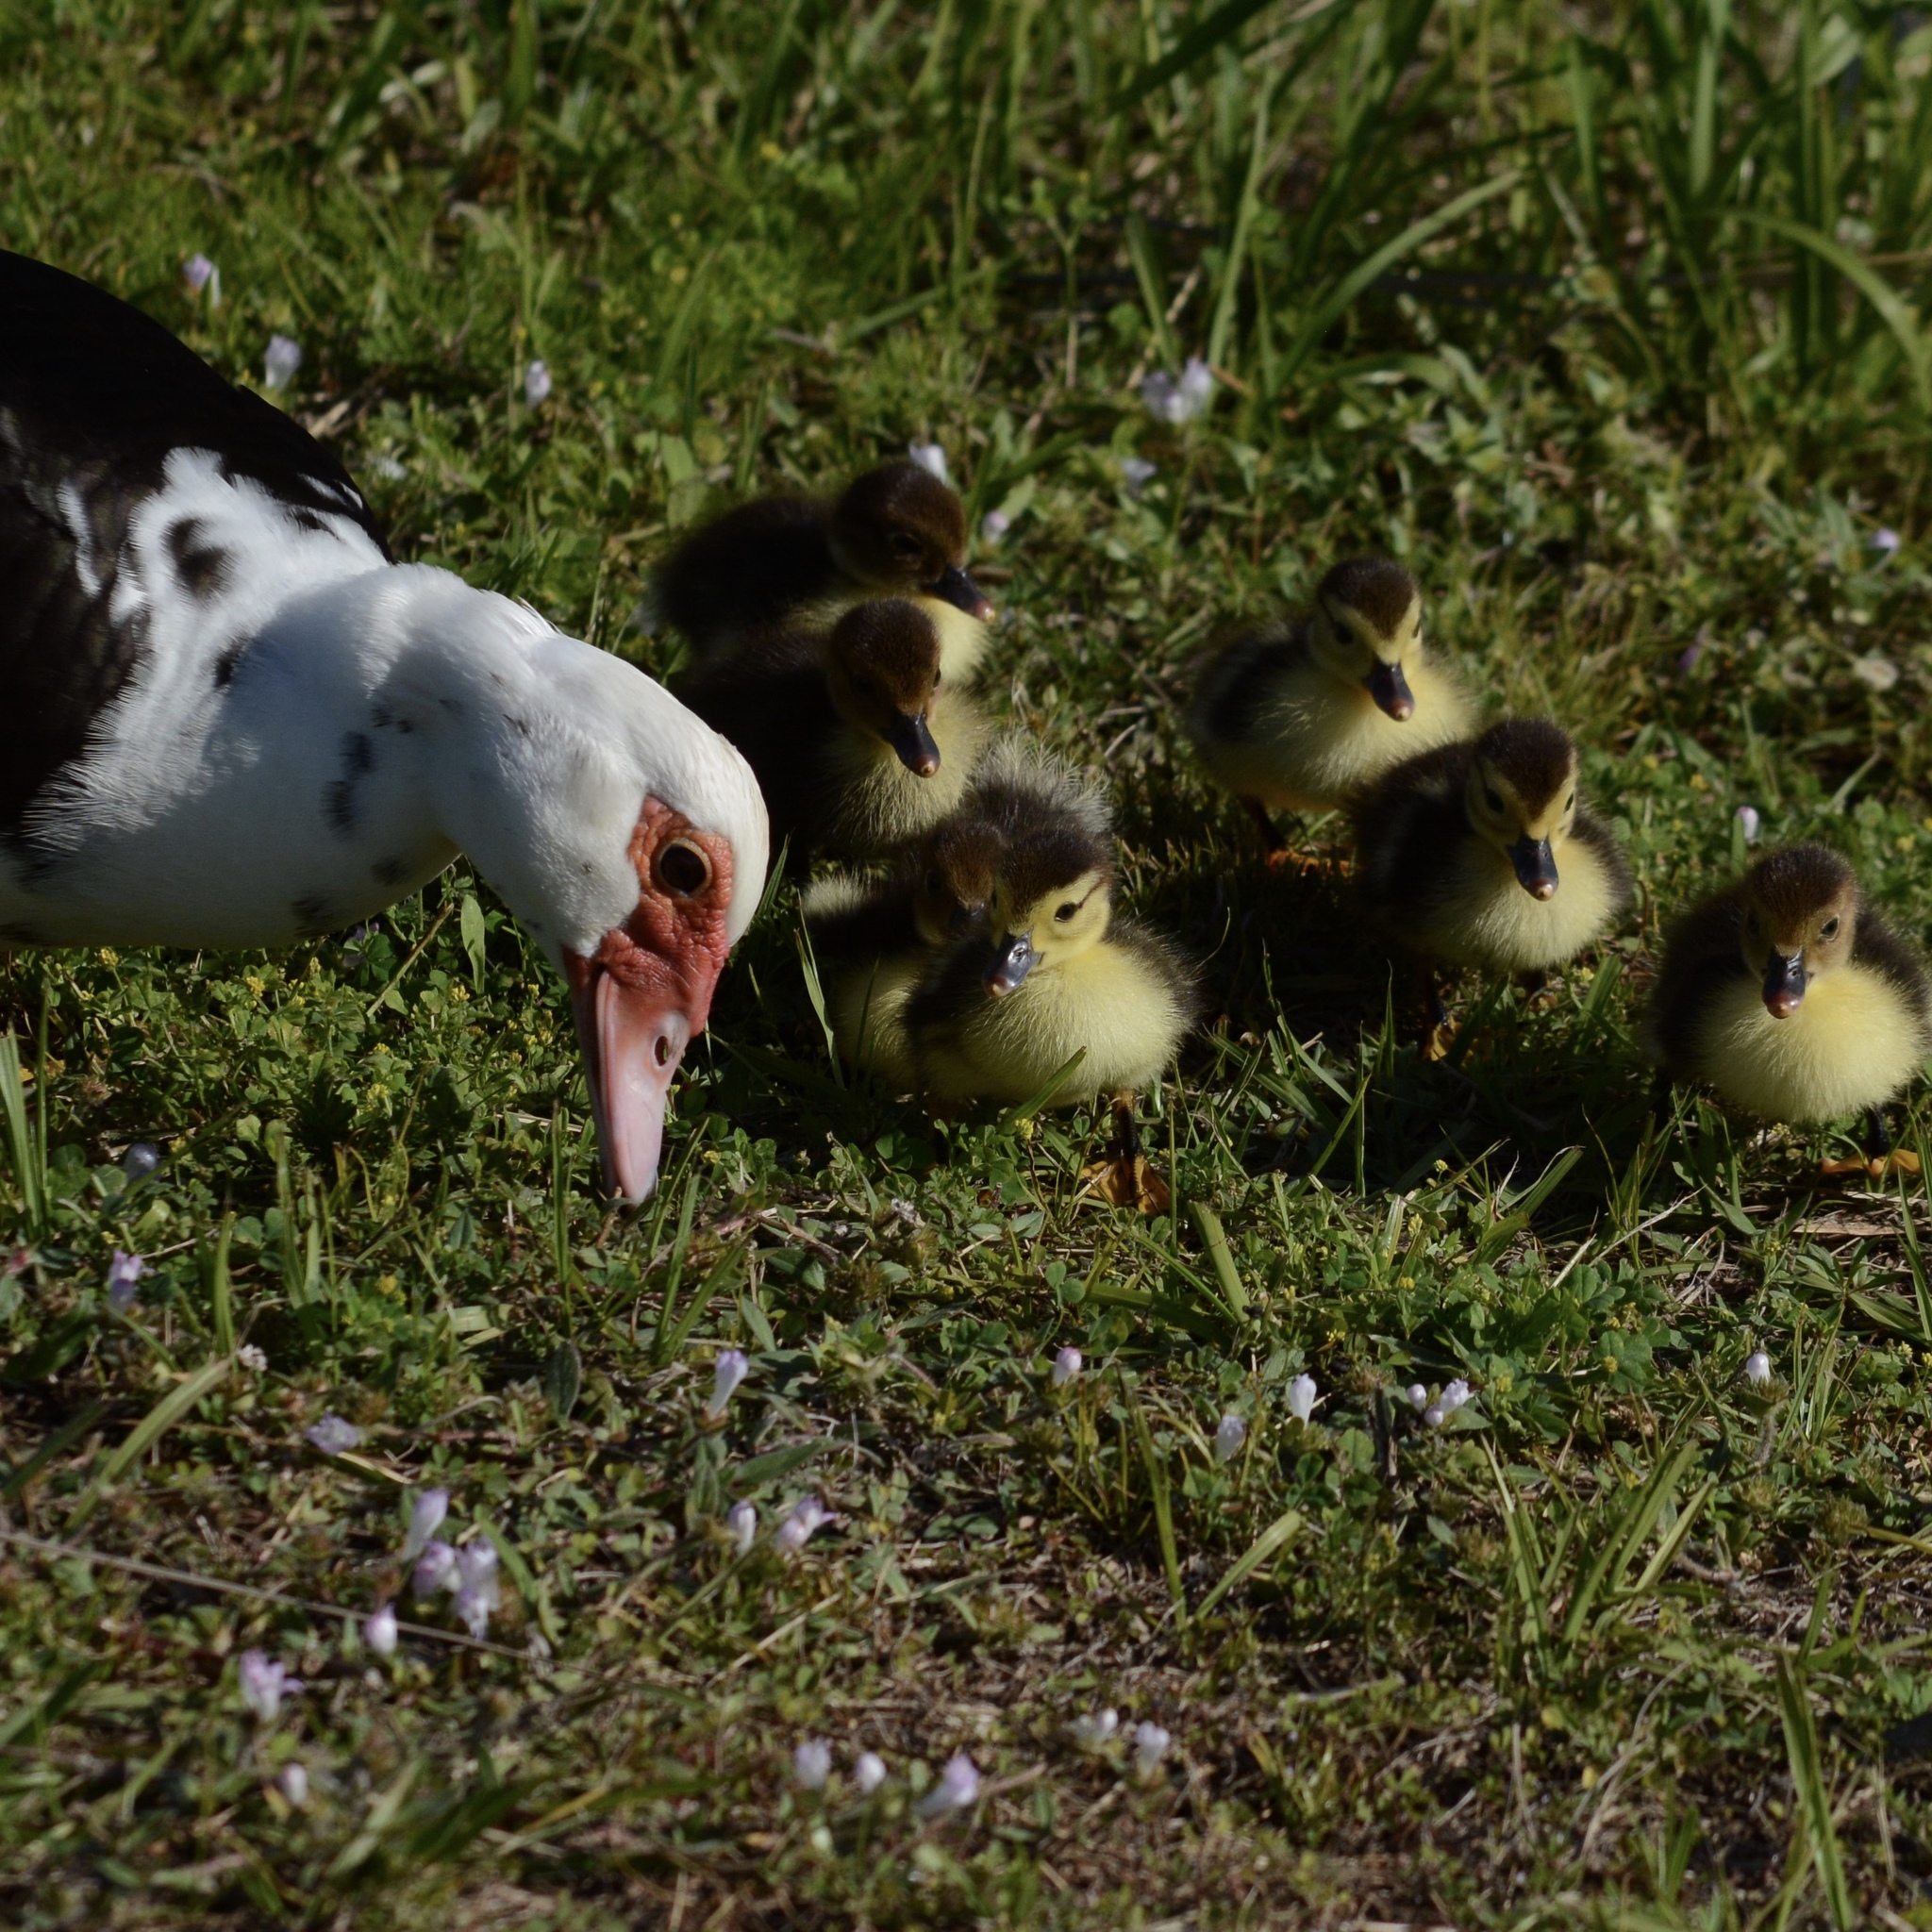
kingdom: Animalia
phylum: Chordata
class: Aves
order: Anseriformes
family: Anatidae
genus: Cairina
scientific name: Cairina moschata
